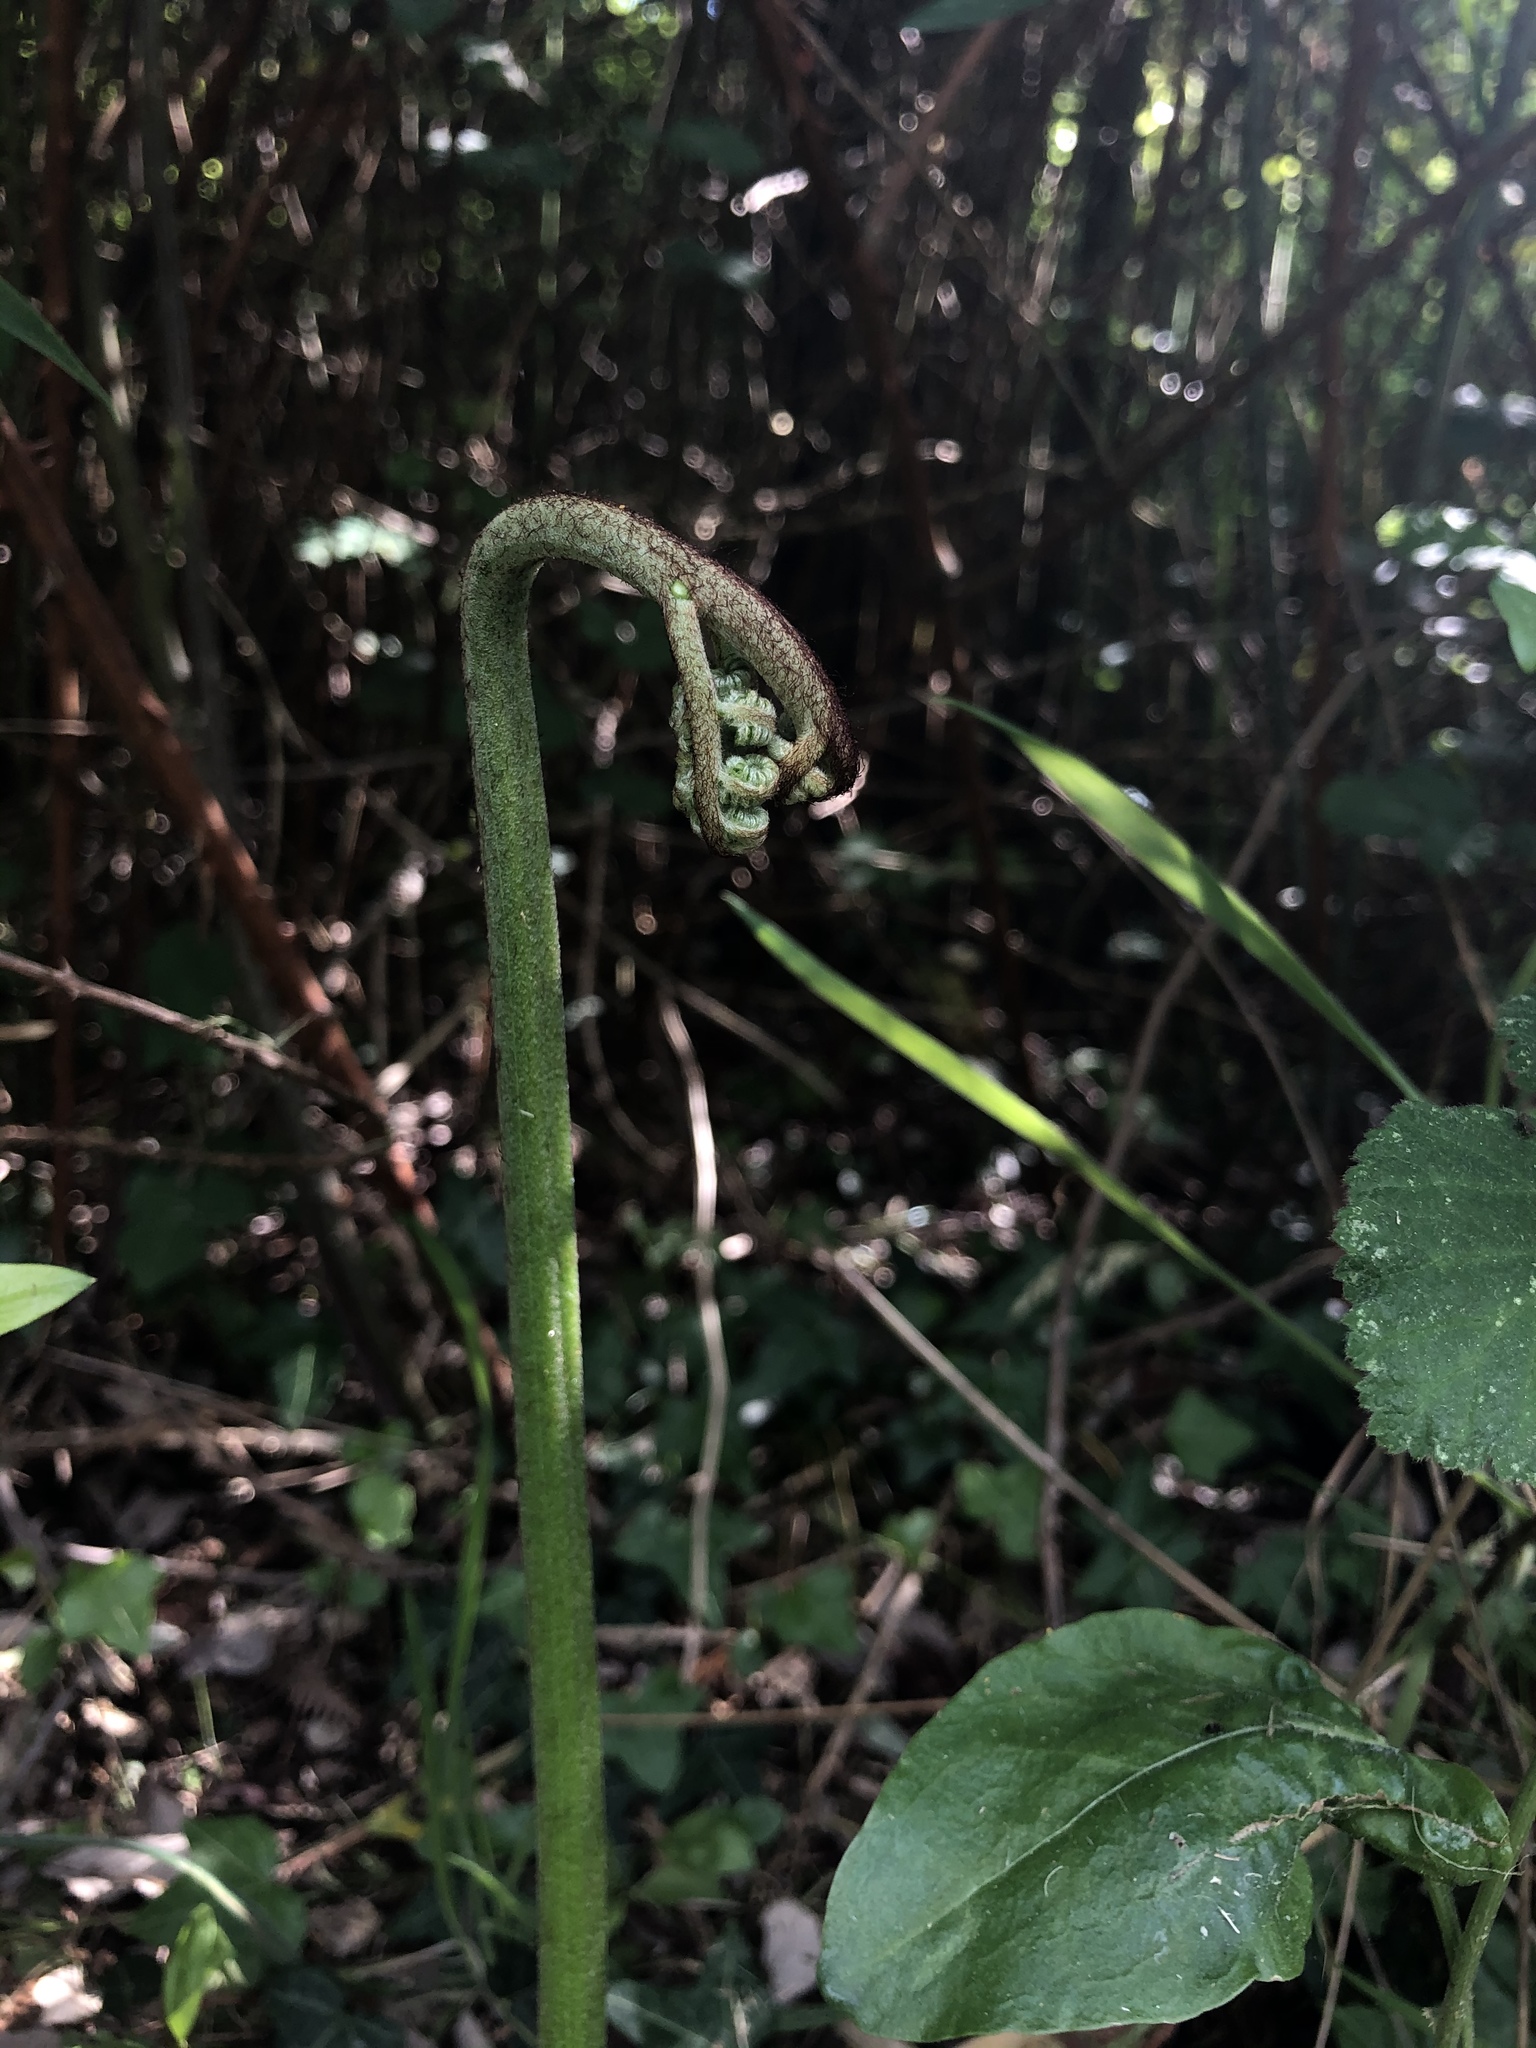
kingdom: Plantae
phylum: Tracheophyta
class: Polypodiopsida
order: Polypodiales
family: Dennstaedtiaceae
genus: Pteridium
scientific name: Pteridium aquilinum
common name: Bracken
